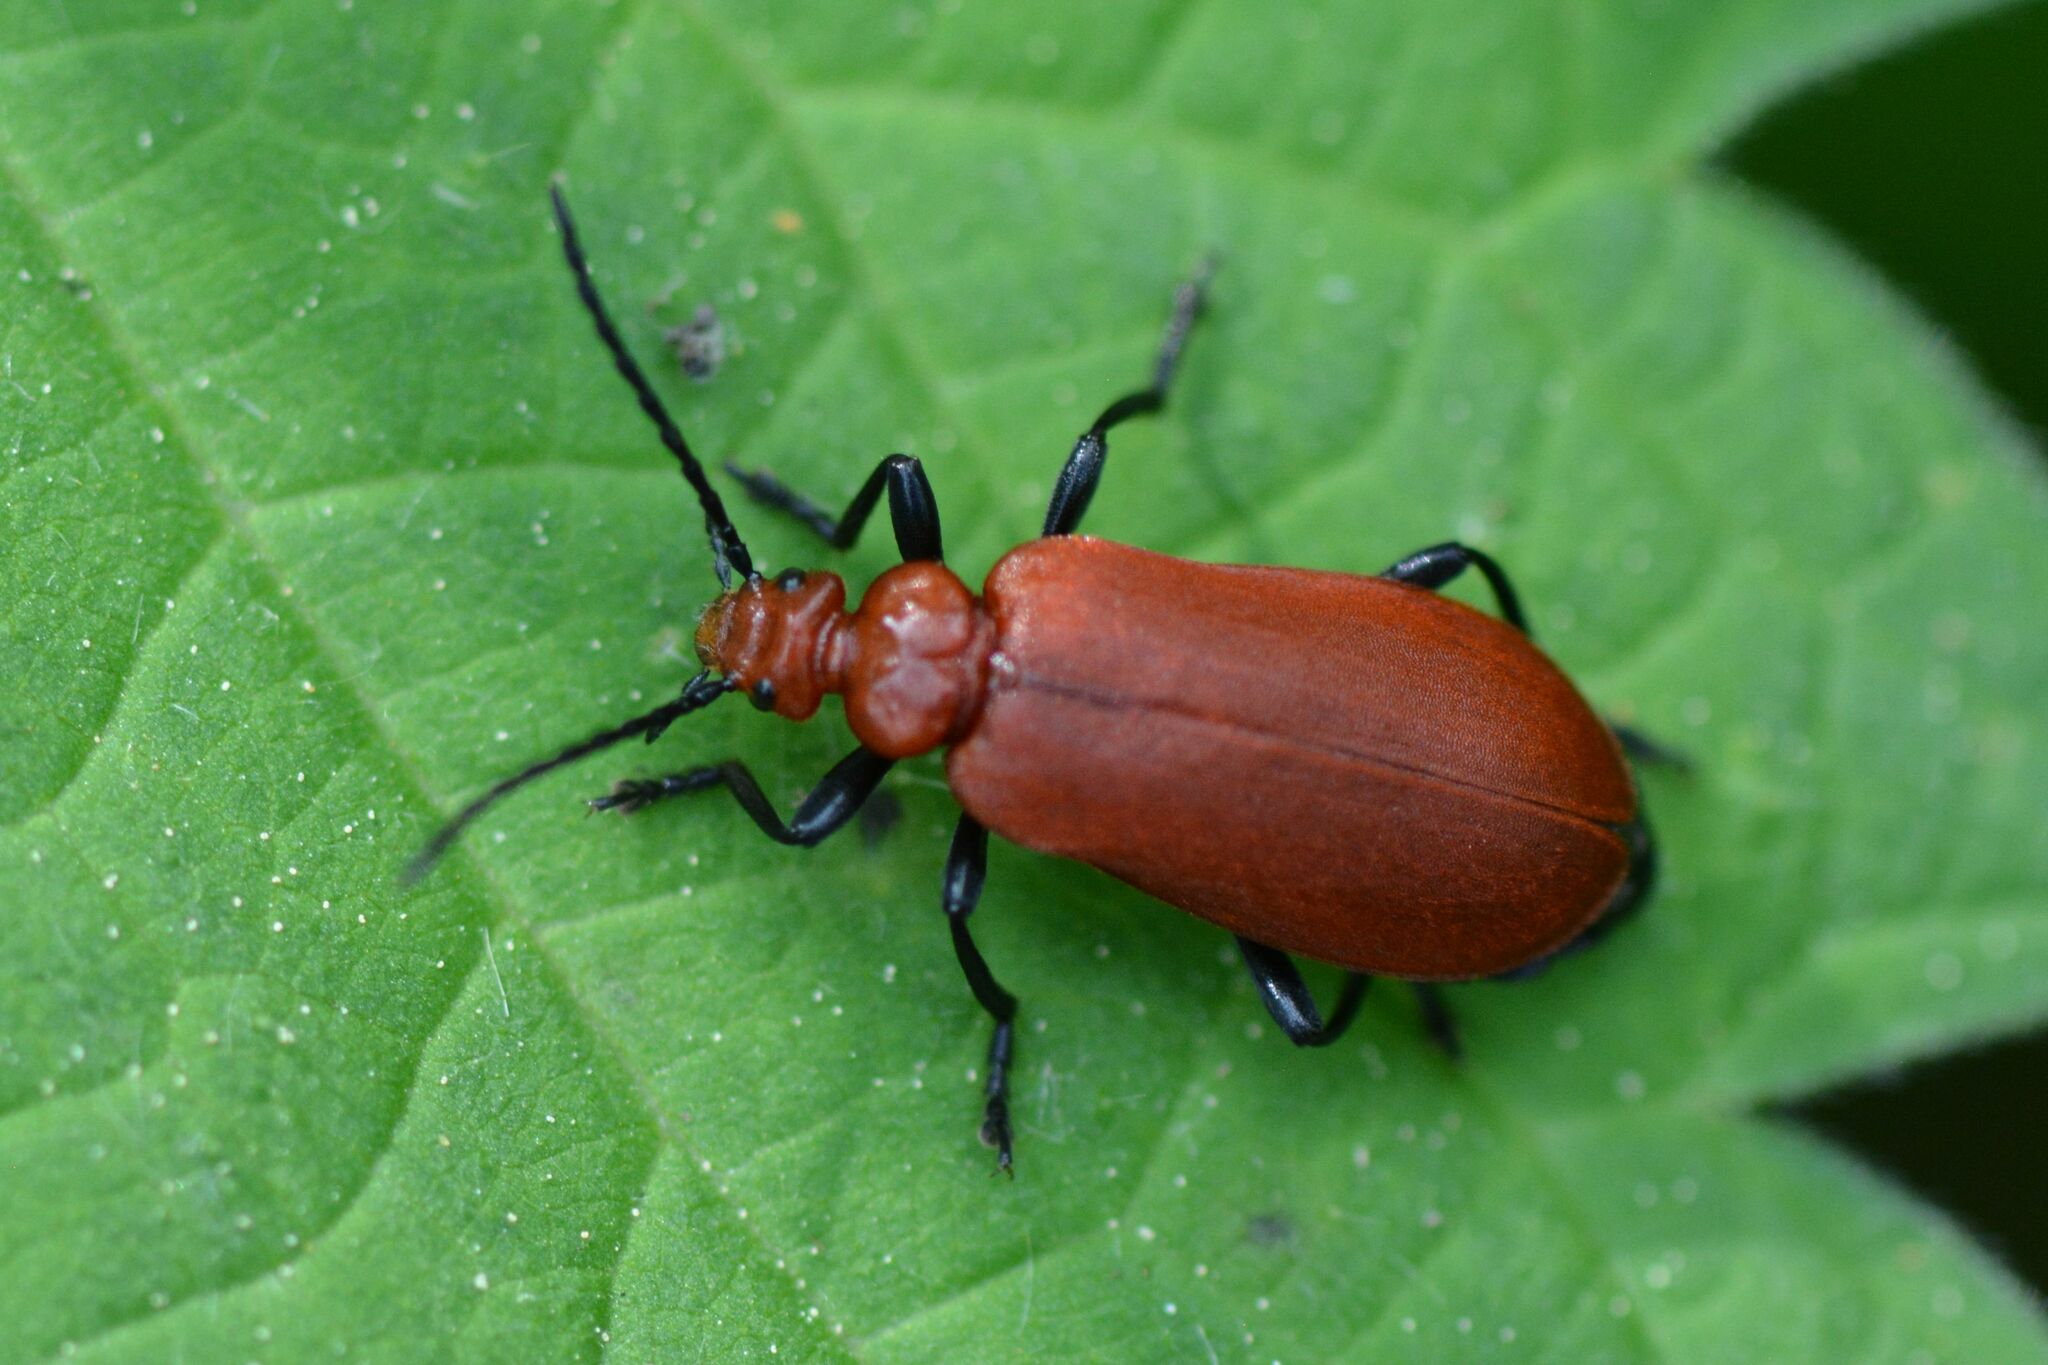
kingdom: Animalia
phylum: Arthropoda
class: Insecta
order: Coleoptera
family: Pyrochroidae
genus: Pyrochroa
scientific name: Pyrochroa serraticornis
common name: Red-headed cardinal beetle
